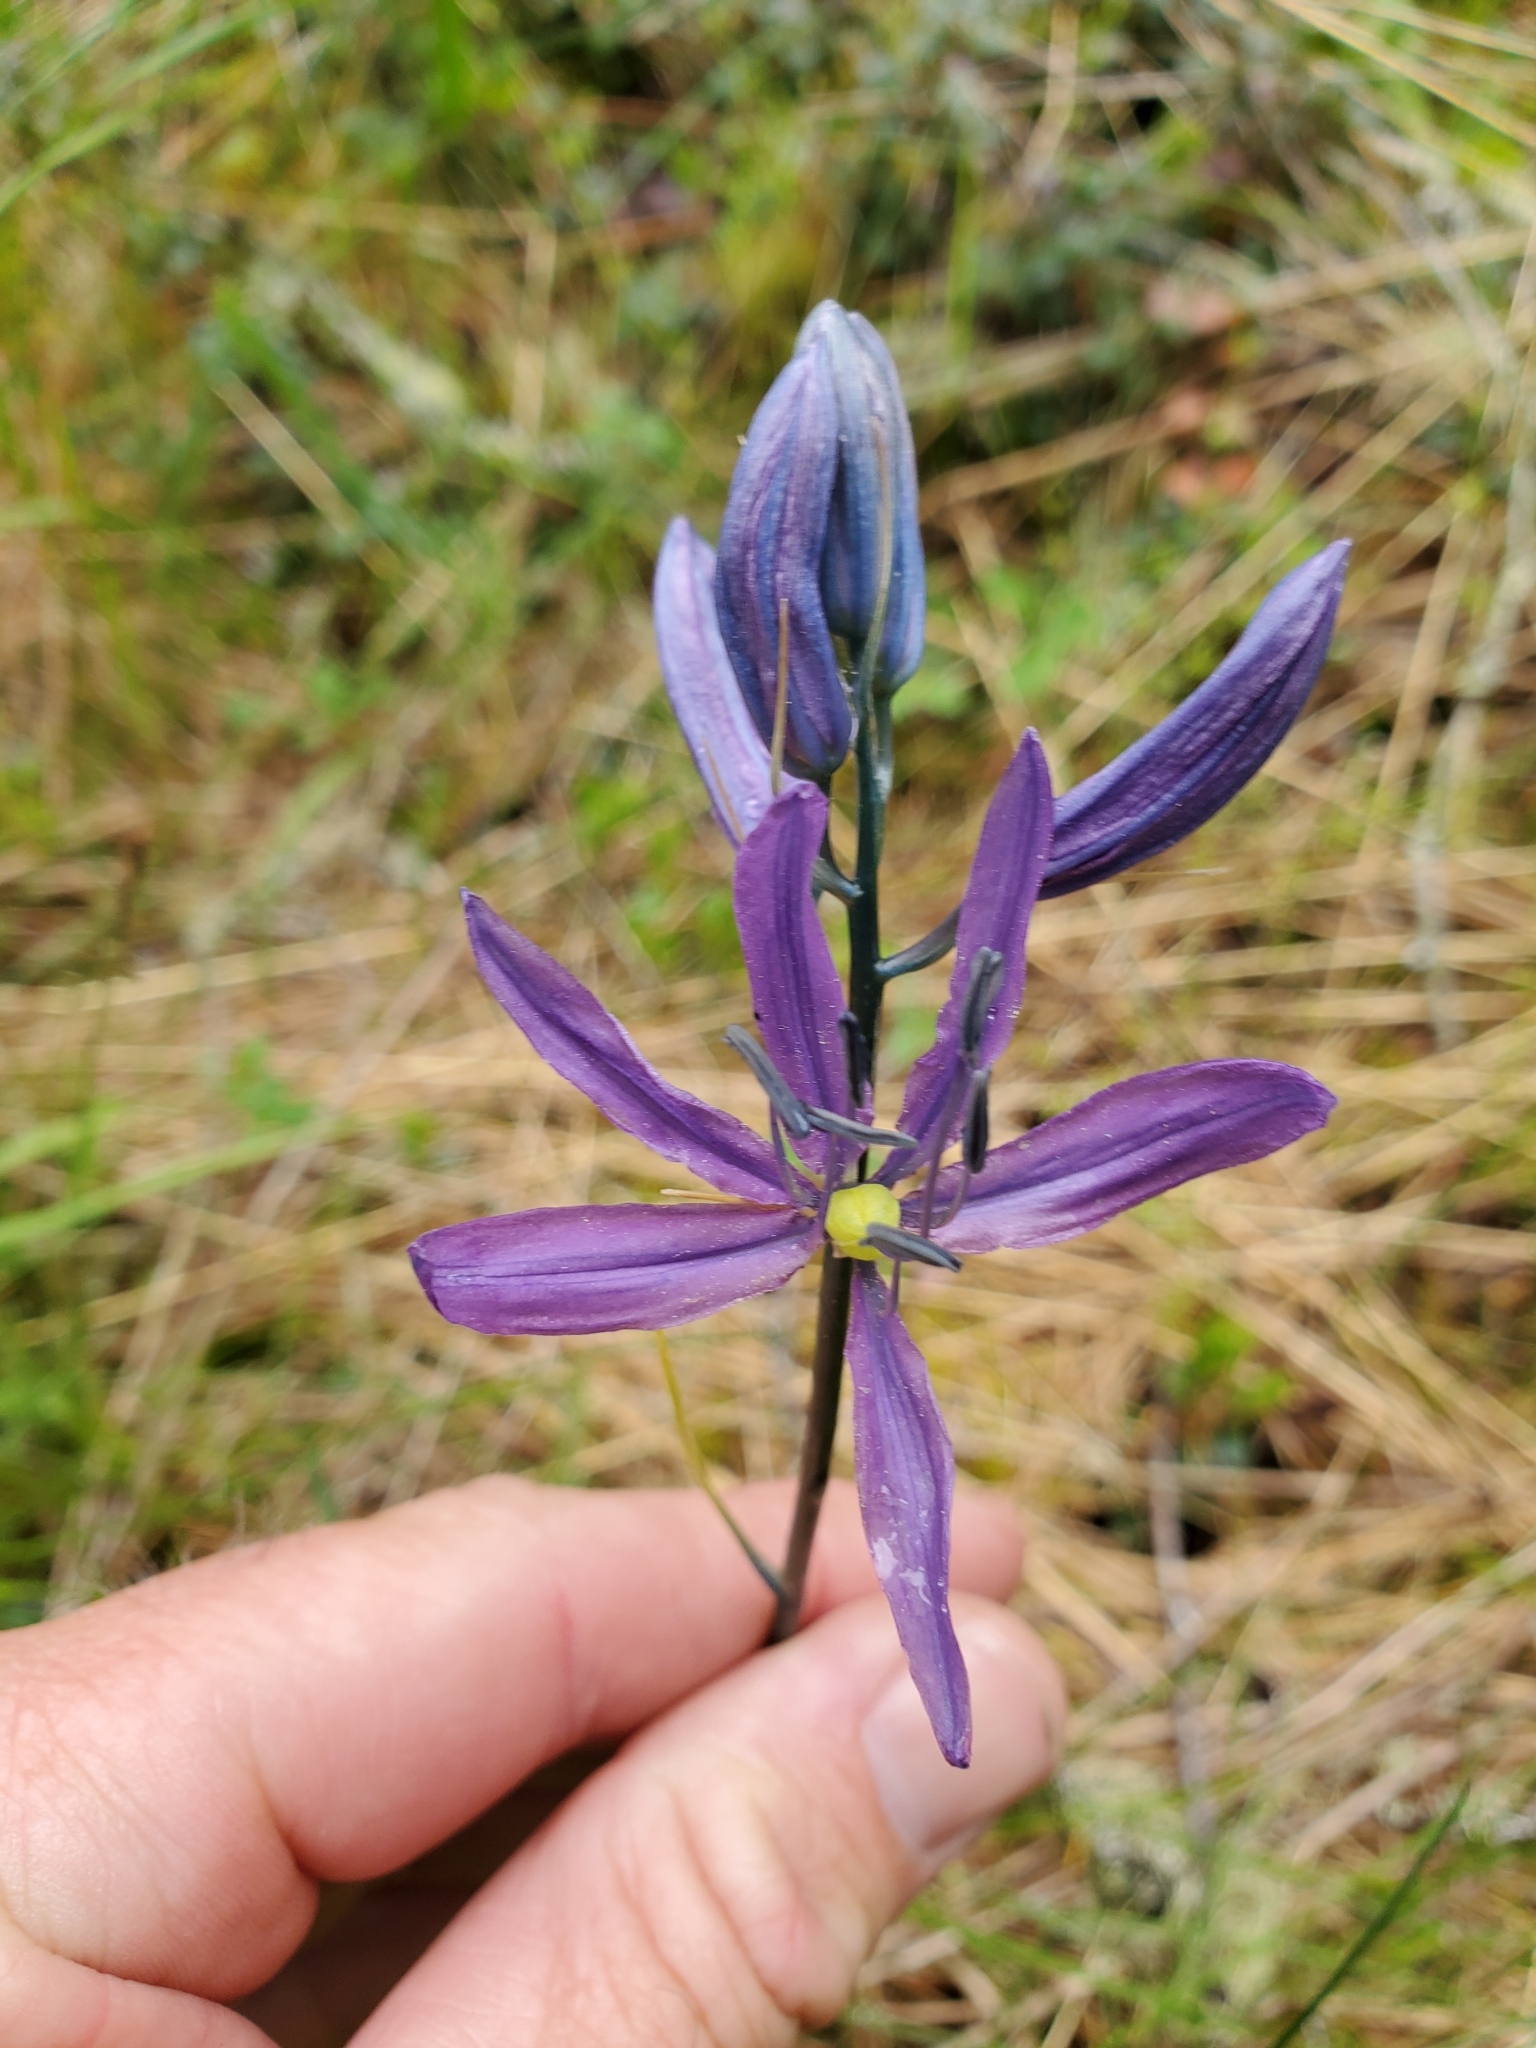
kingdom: Plantae
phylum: Tracheophyta
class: Liliopsida
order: Asparagales
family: Asparagaceae
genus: Camassia
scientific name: Camassia quamash
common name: Common camas
